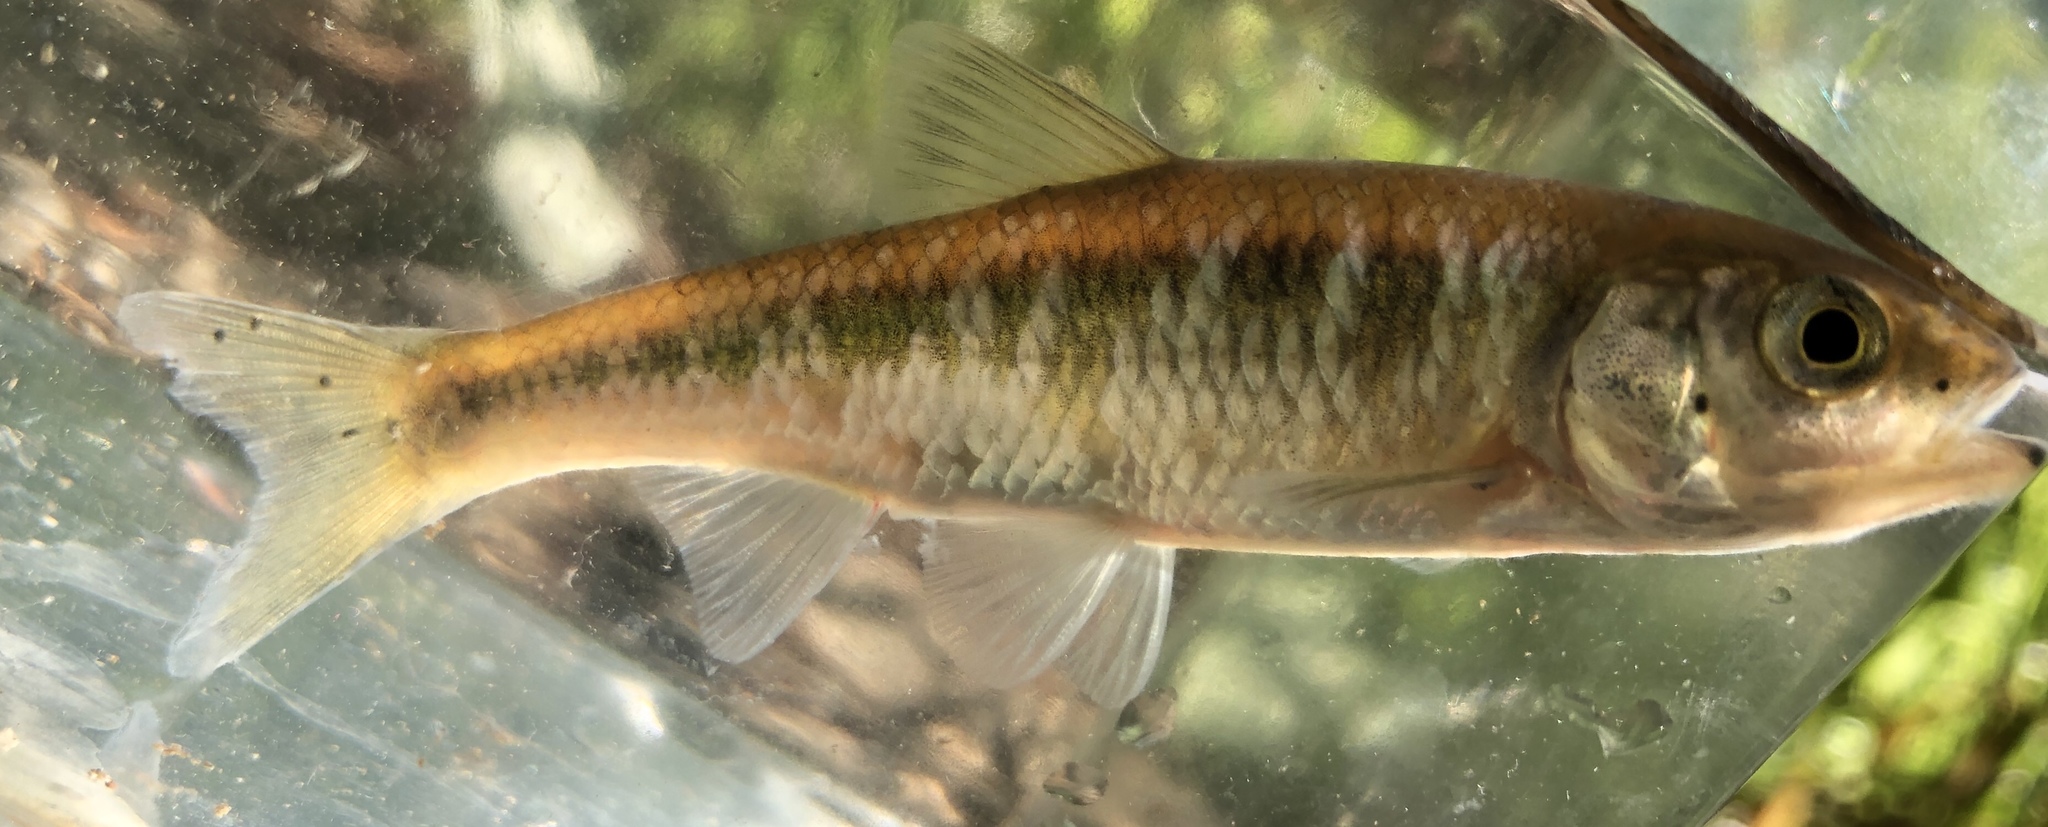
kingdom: Animalia
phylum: Chordata
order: Cypriniformes
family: Cyprinidae
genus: Luxilus
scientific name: Luxilus cornutus
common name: Common shiner
